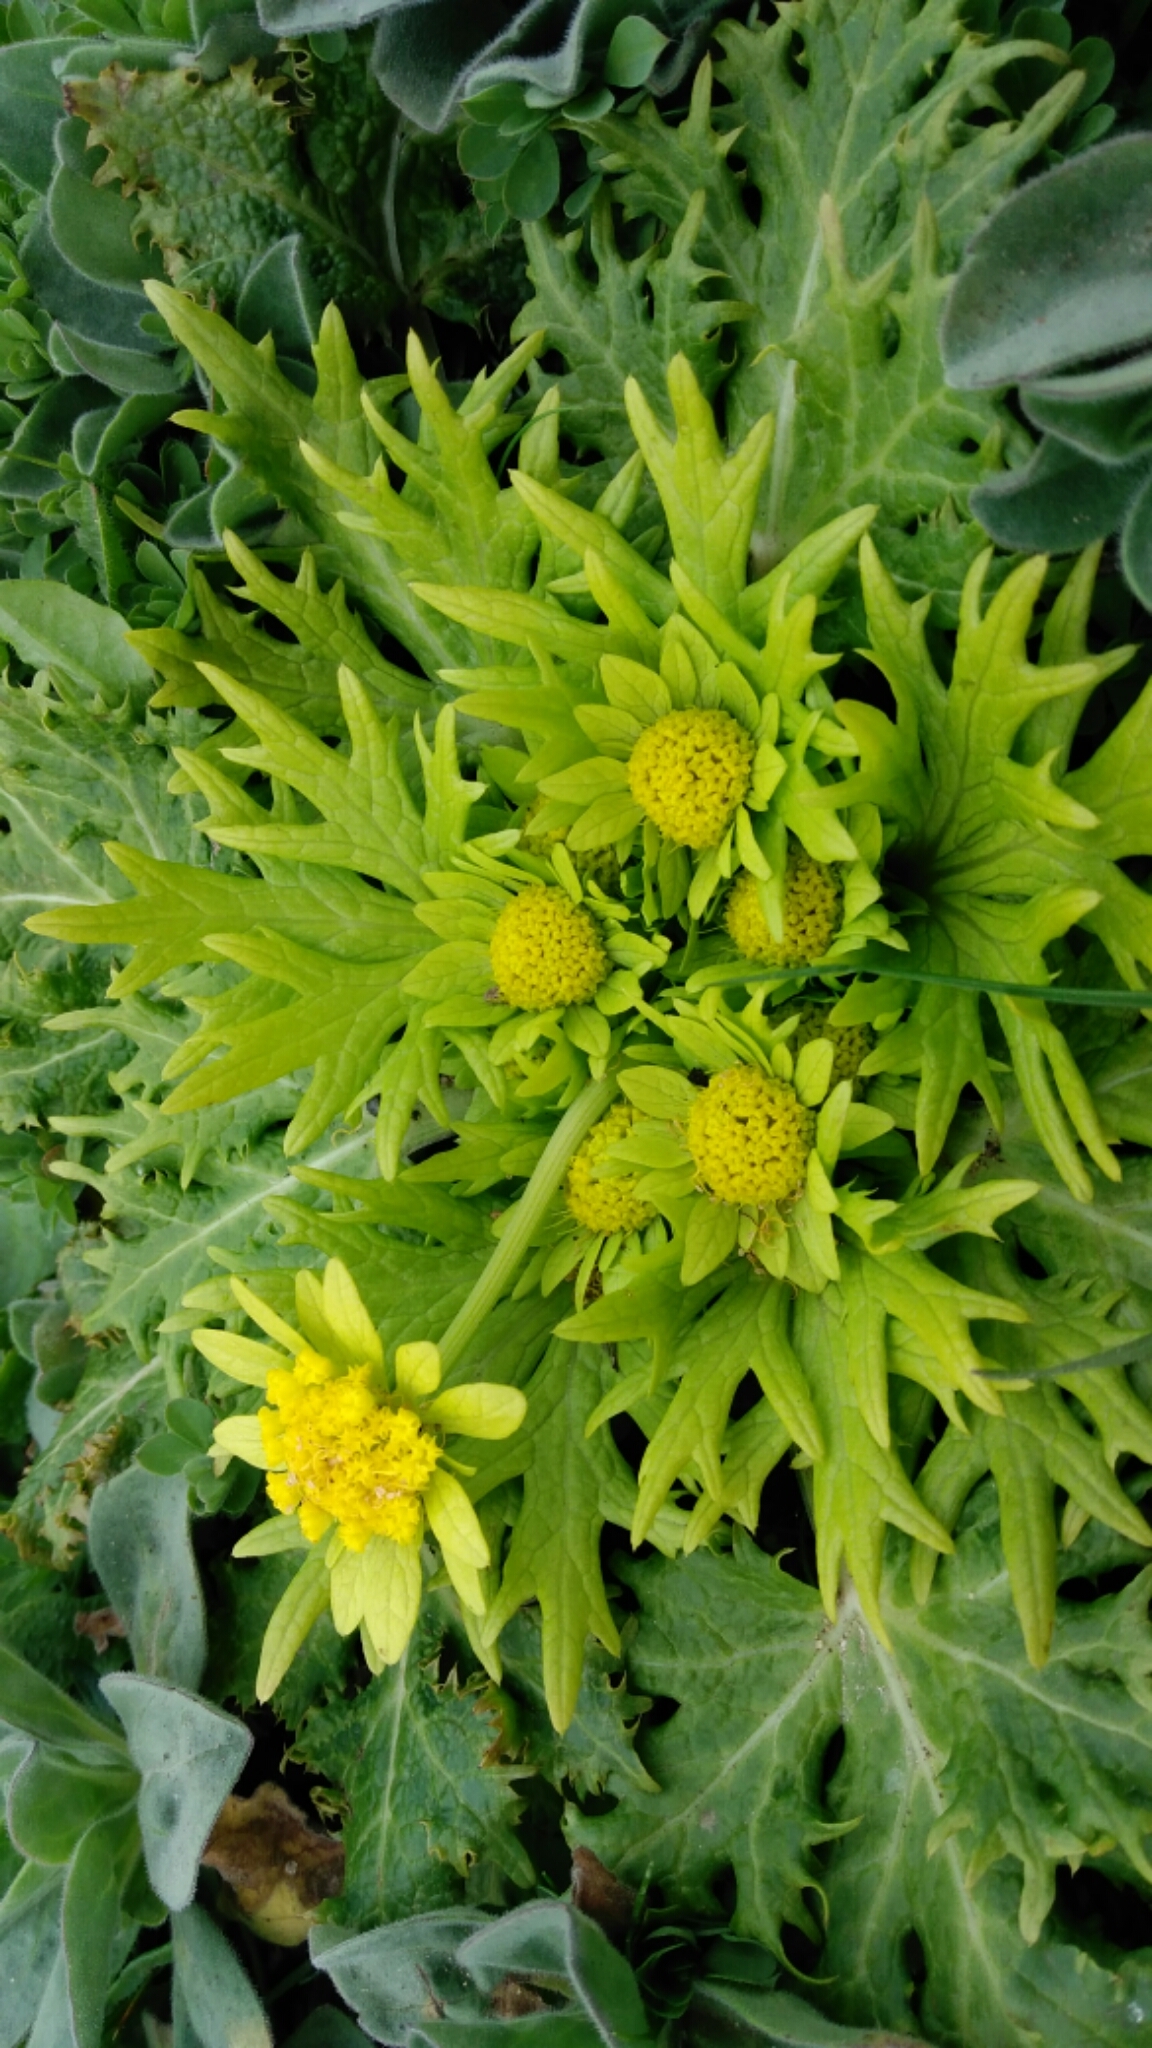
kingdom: Plantae
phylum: Tracheophyta
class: Magnoliopsida
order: Apiales
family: Apiaceae
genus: Sanicula
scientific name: Sanicula arctopoides
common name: Footsteps-of-spring
